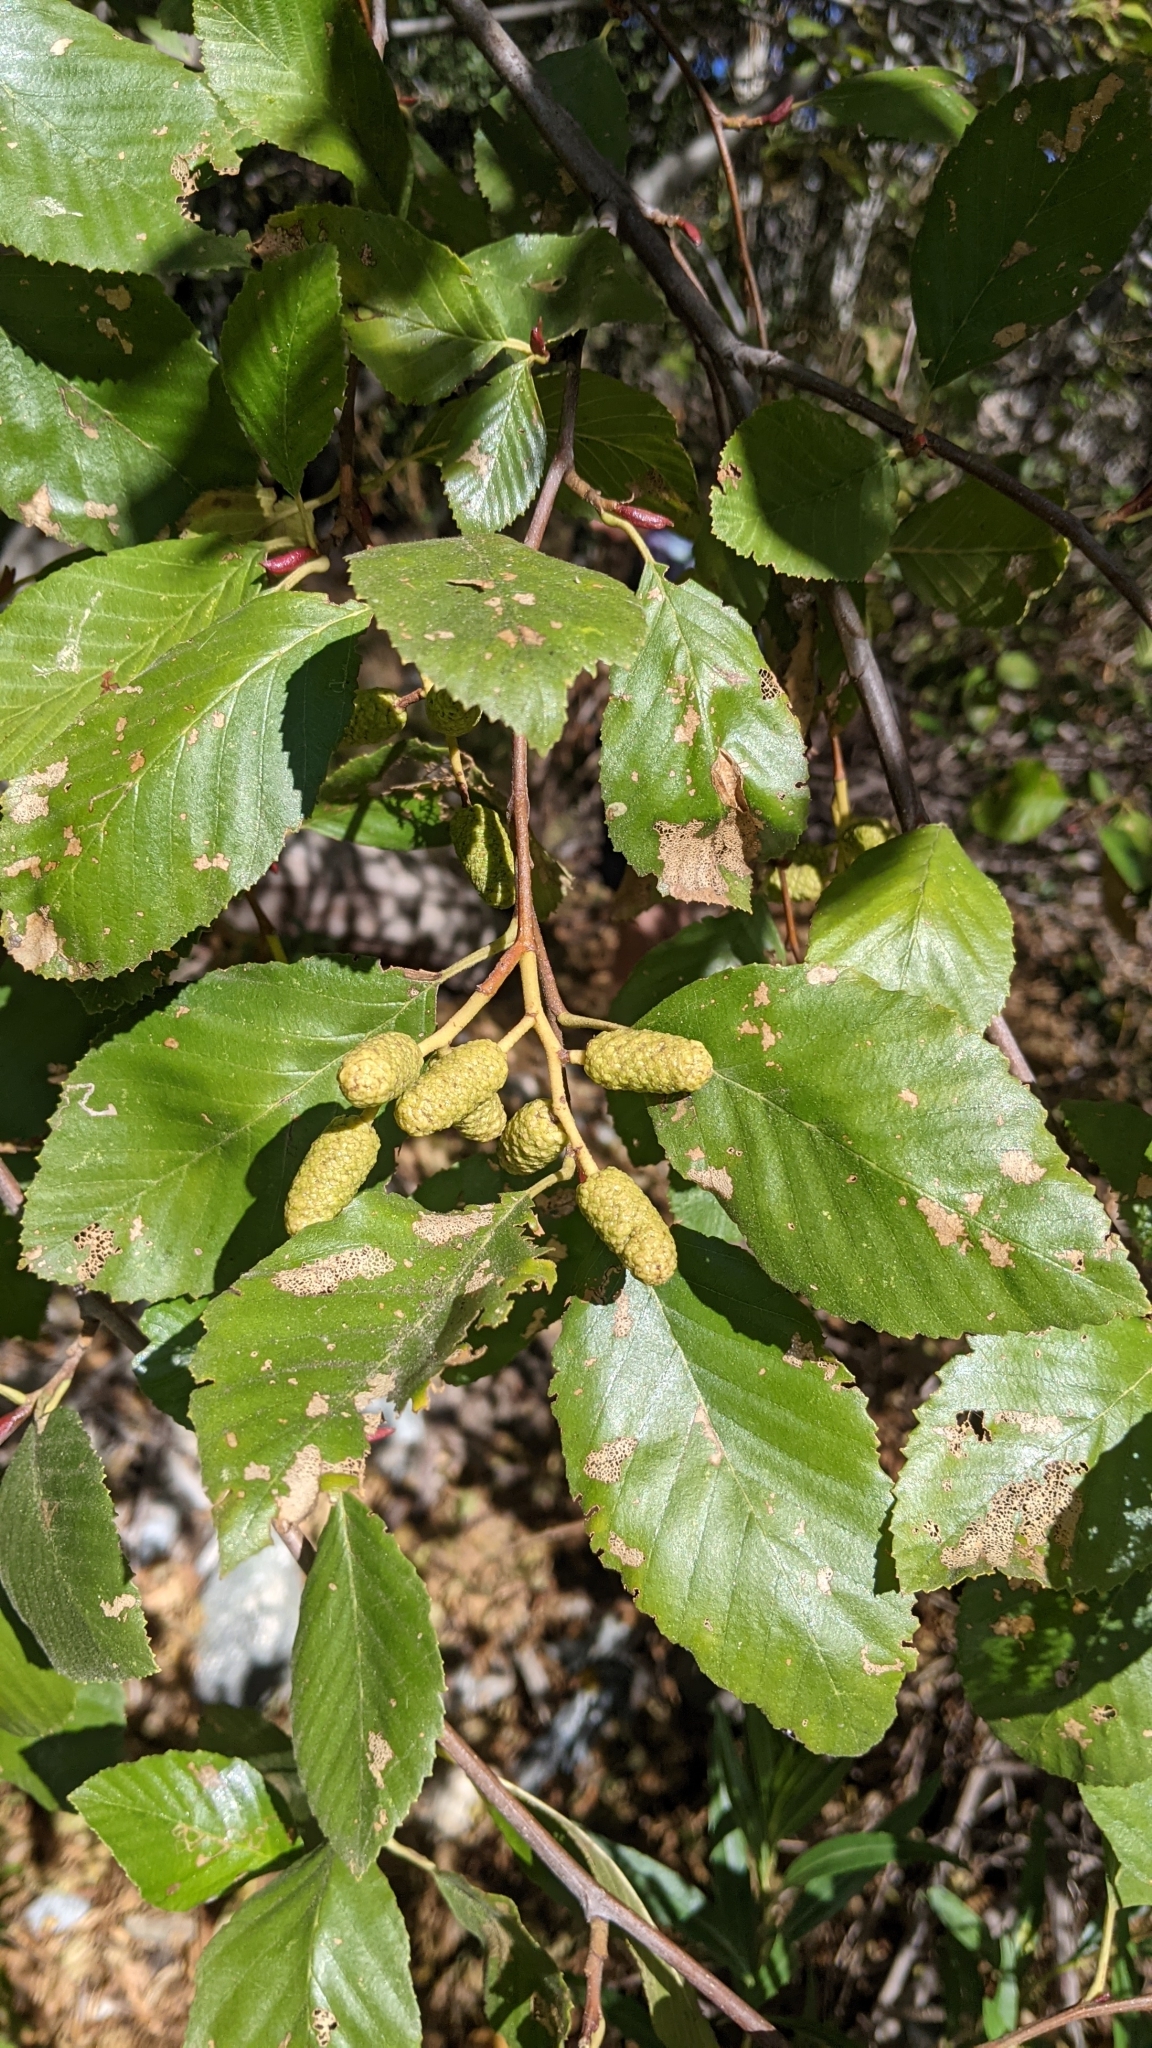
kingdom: Plantae
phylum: Tracheophyta
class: Magnoliopsida
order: Fagales
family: Betulaceae
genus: Alnus
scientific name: Alnus rhombifolia
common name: California alder
